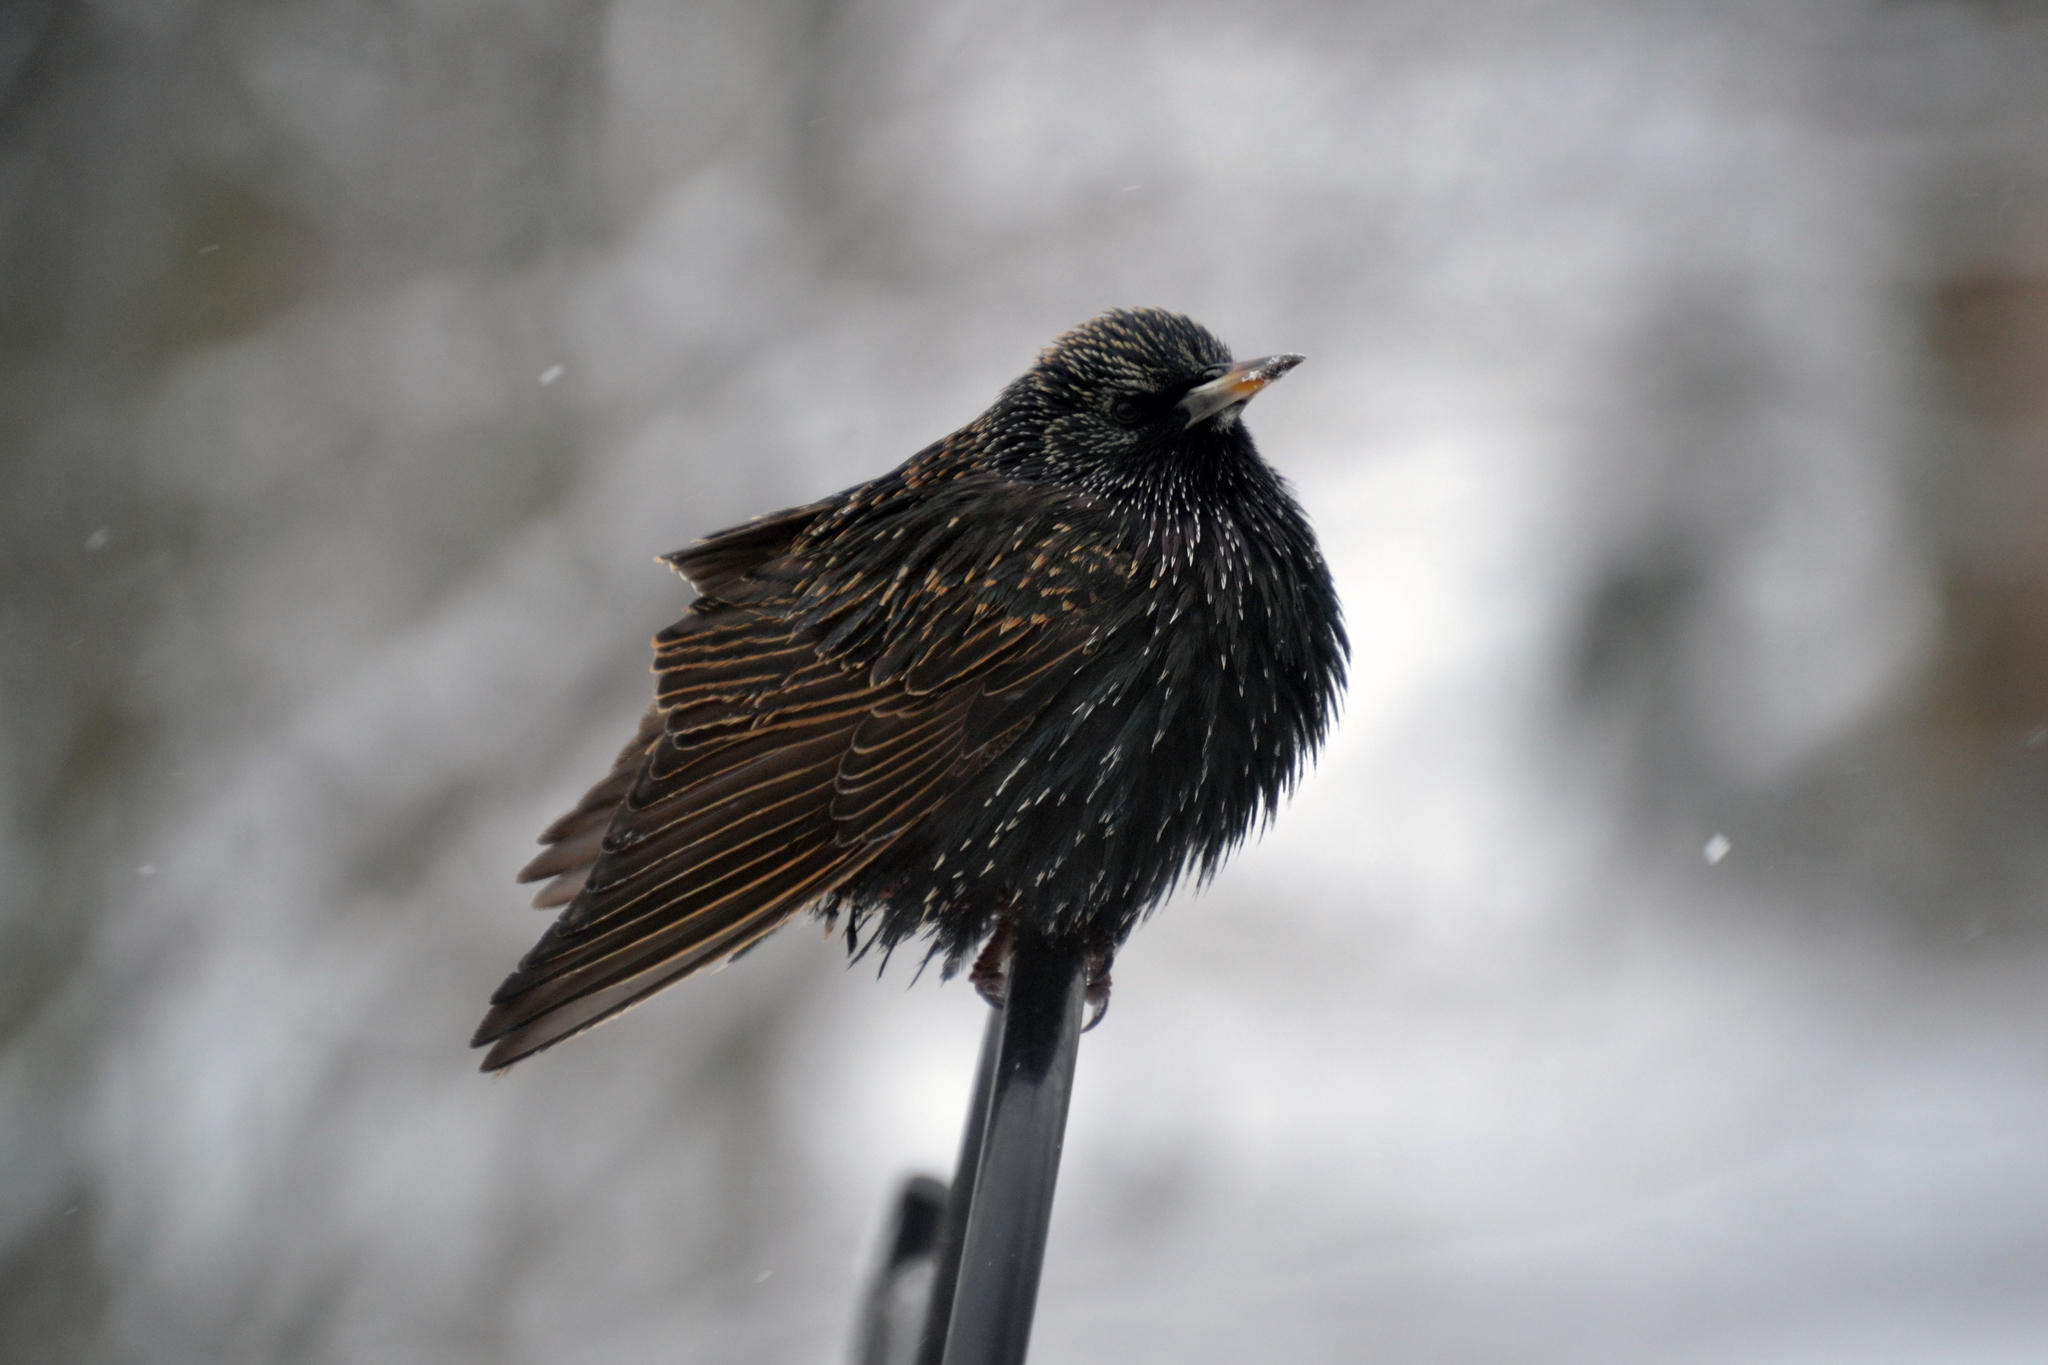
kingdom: Animalia
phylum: Chordata
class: Aves
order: Passeriformes
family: Sturnidae
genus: Sturnus
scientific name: Sturnus vulgaris
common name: Common starling
